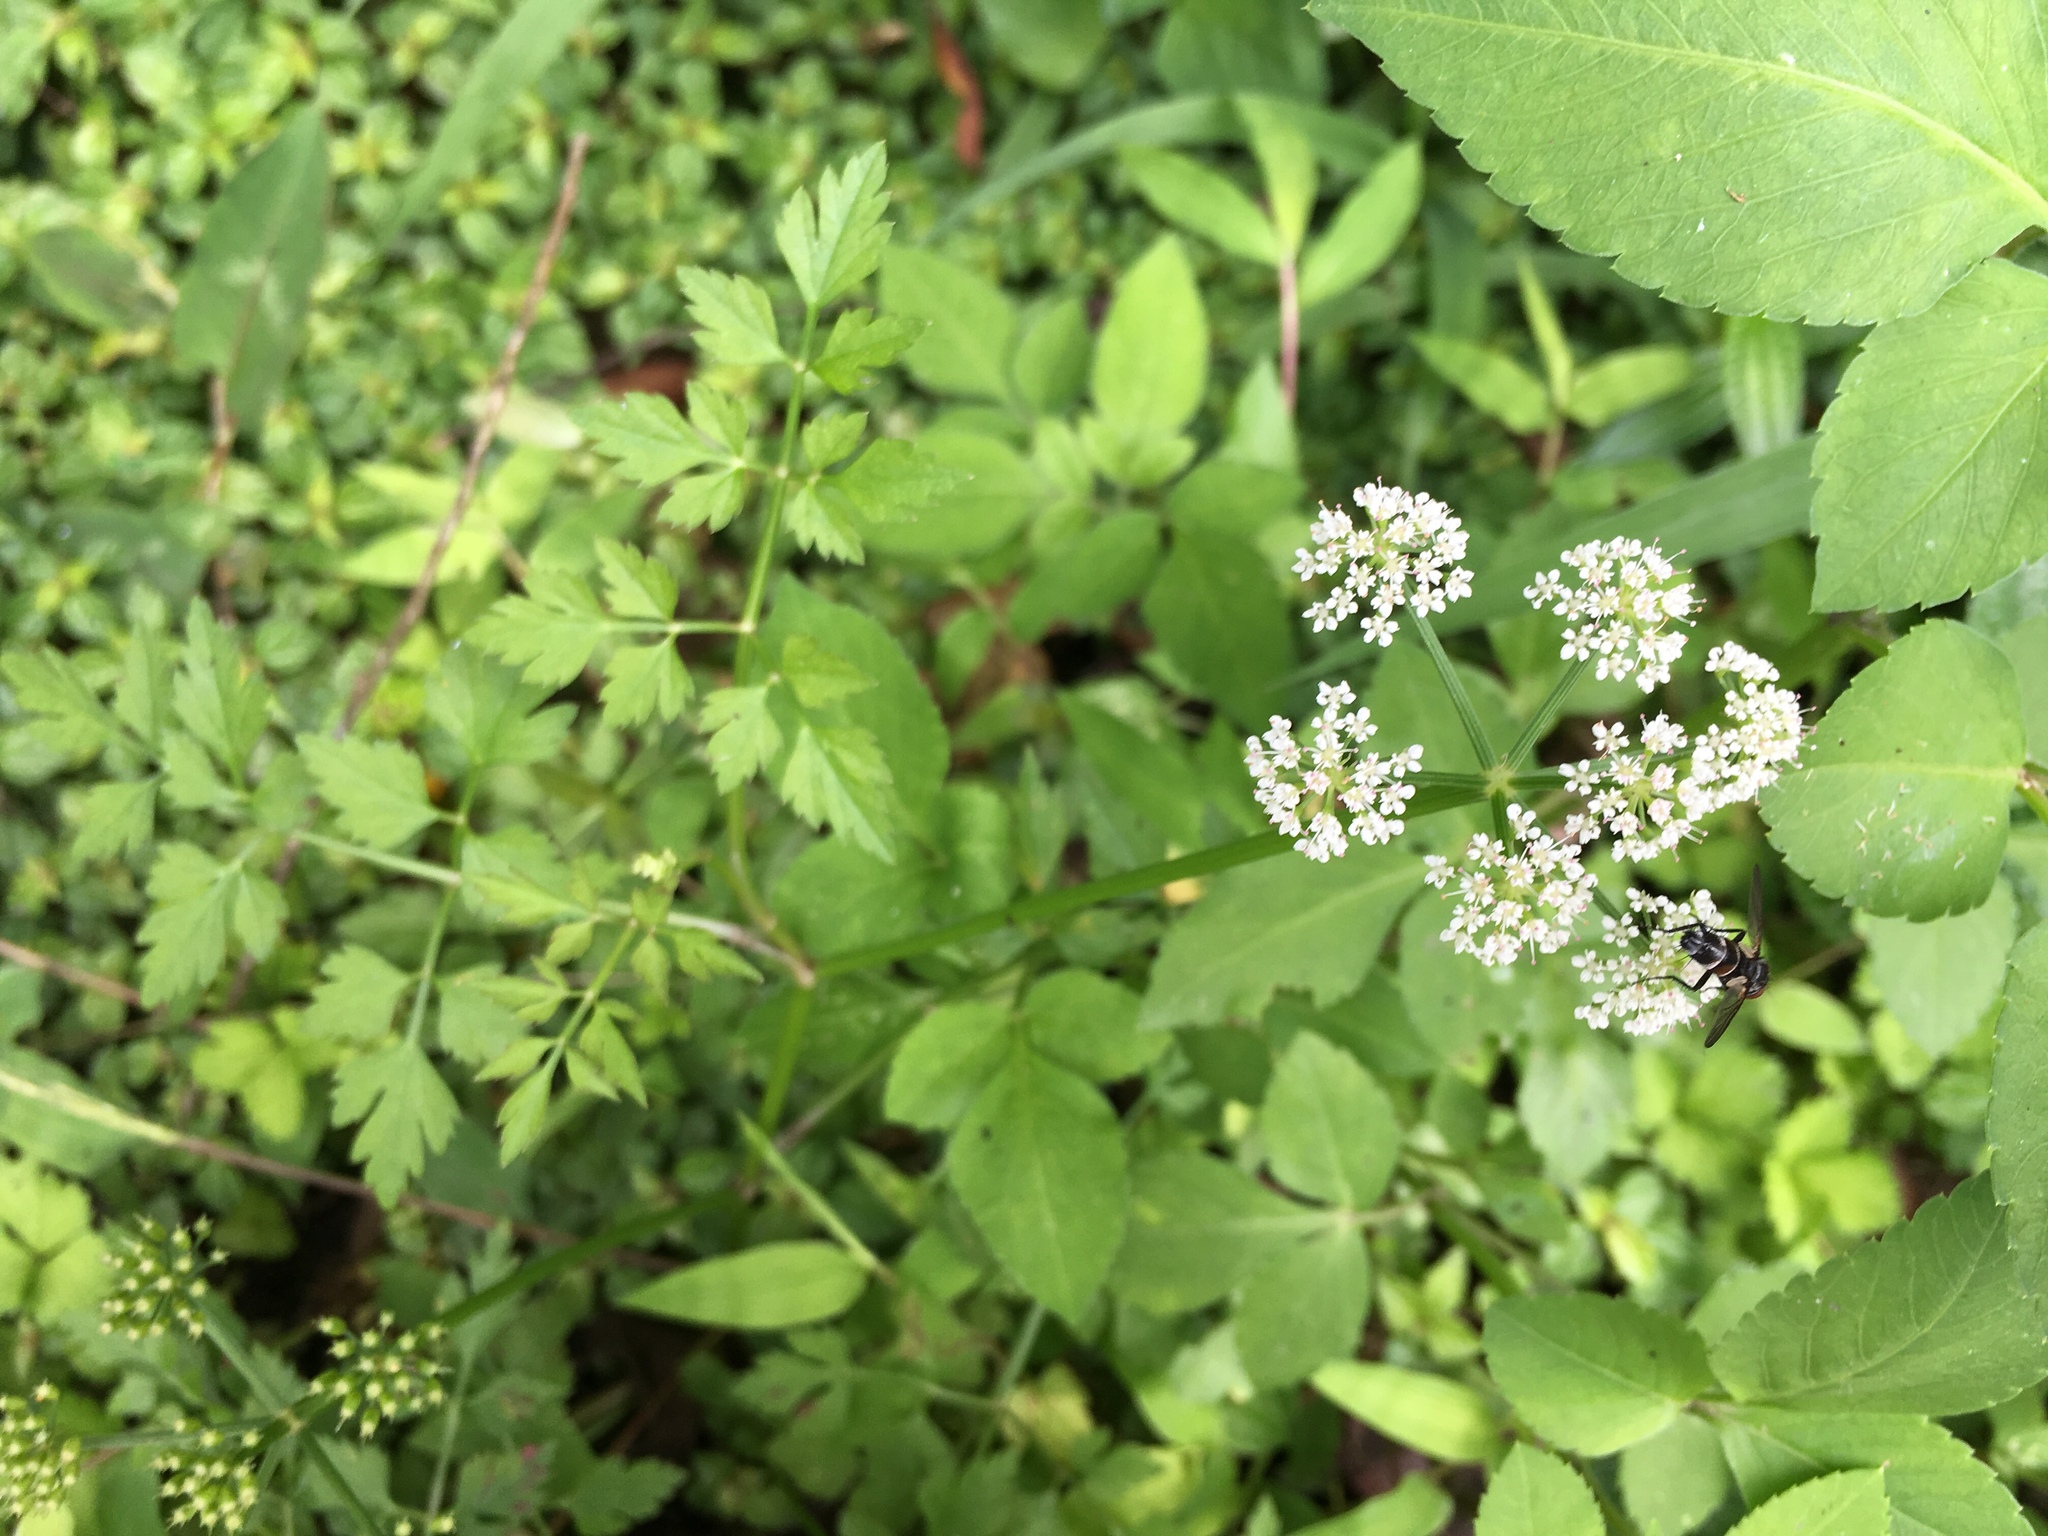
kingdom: Plantae
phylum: Tracheophyta
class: Magnoliopsida
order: Apiales
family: Apiaceae
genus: Oenanthe
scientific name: Oenanthe javanica
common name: Java water-dropwort
